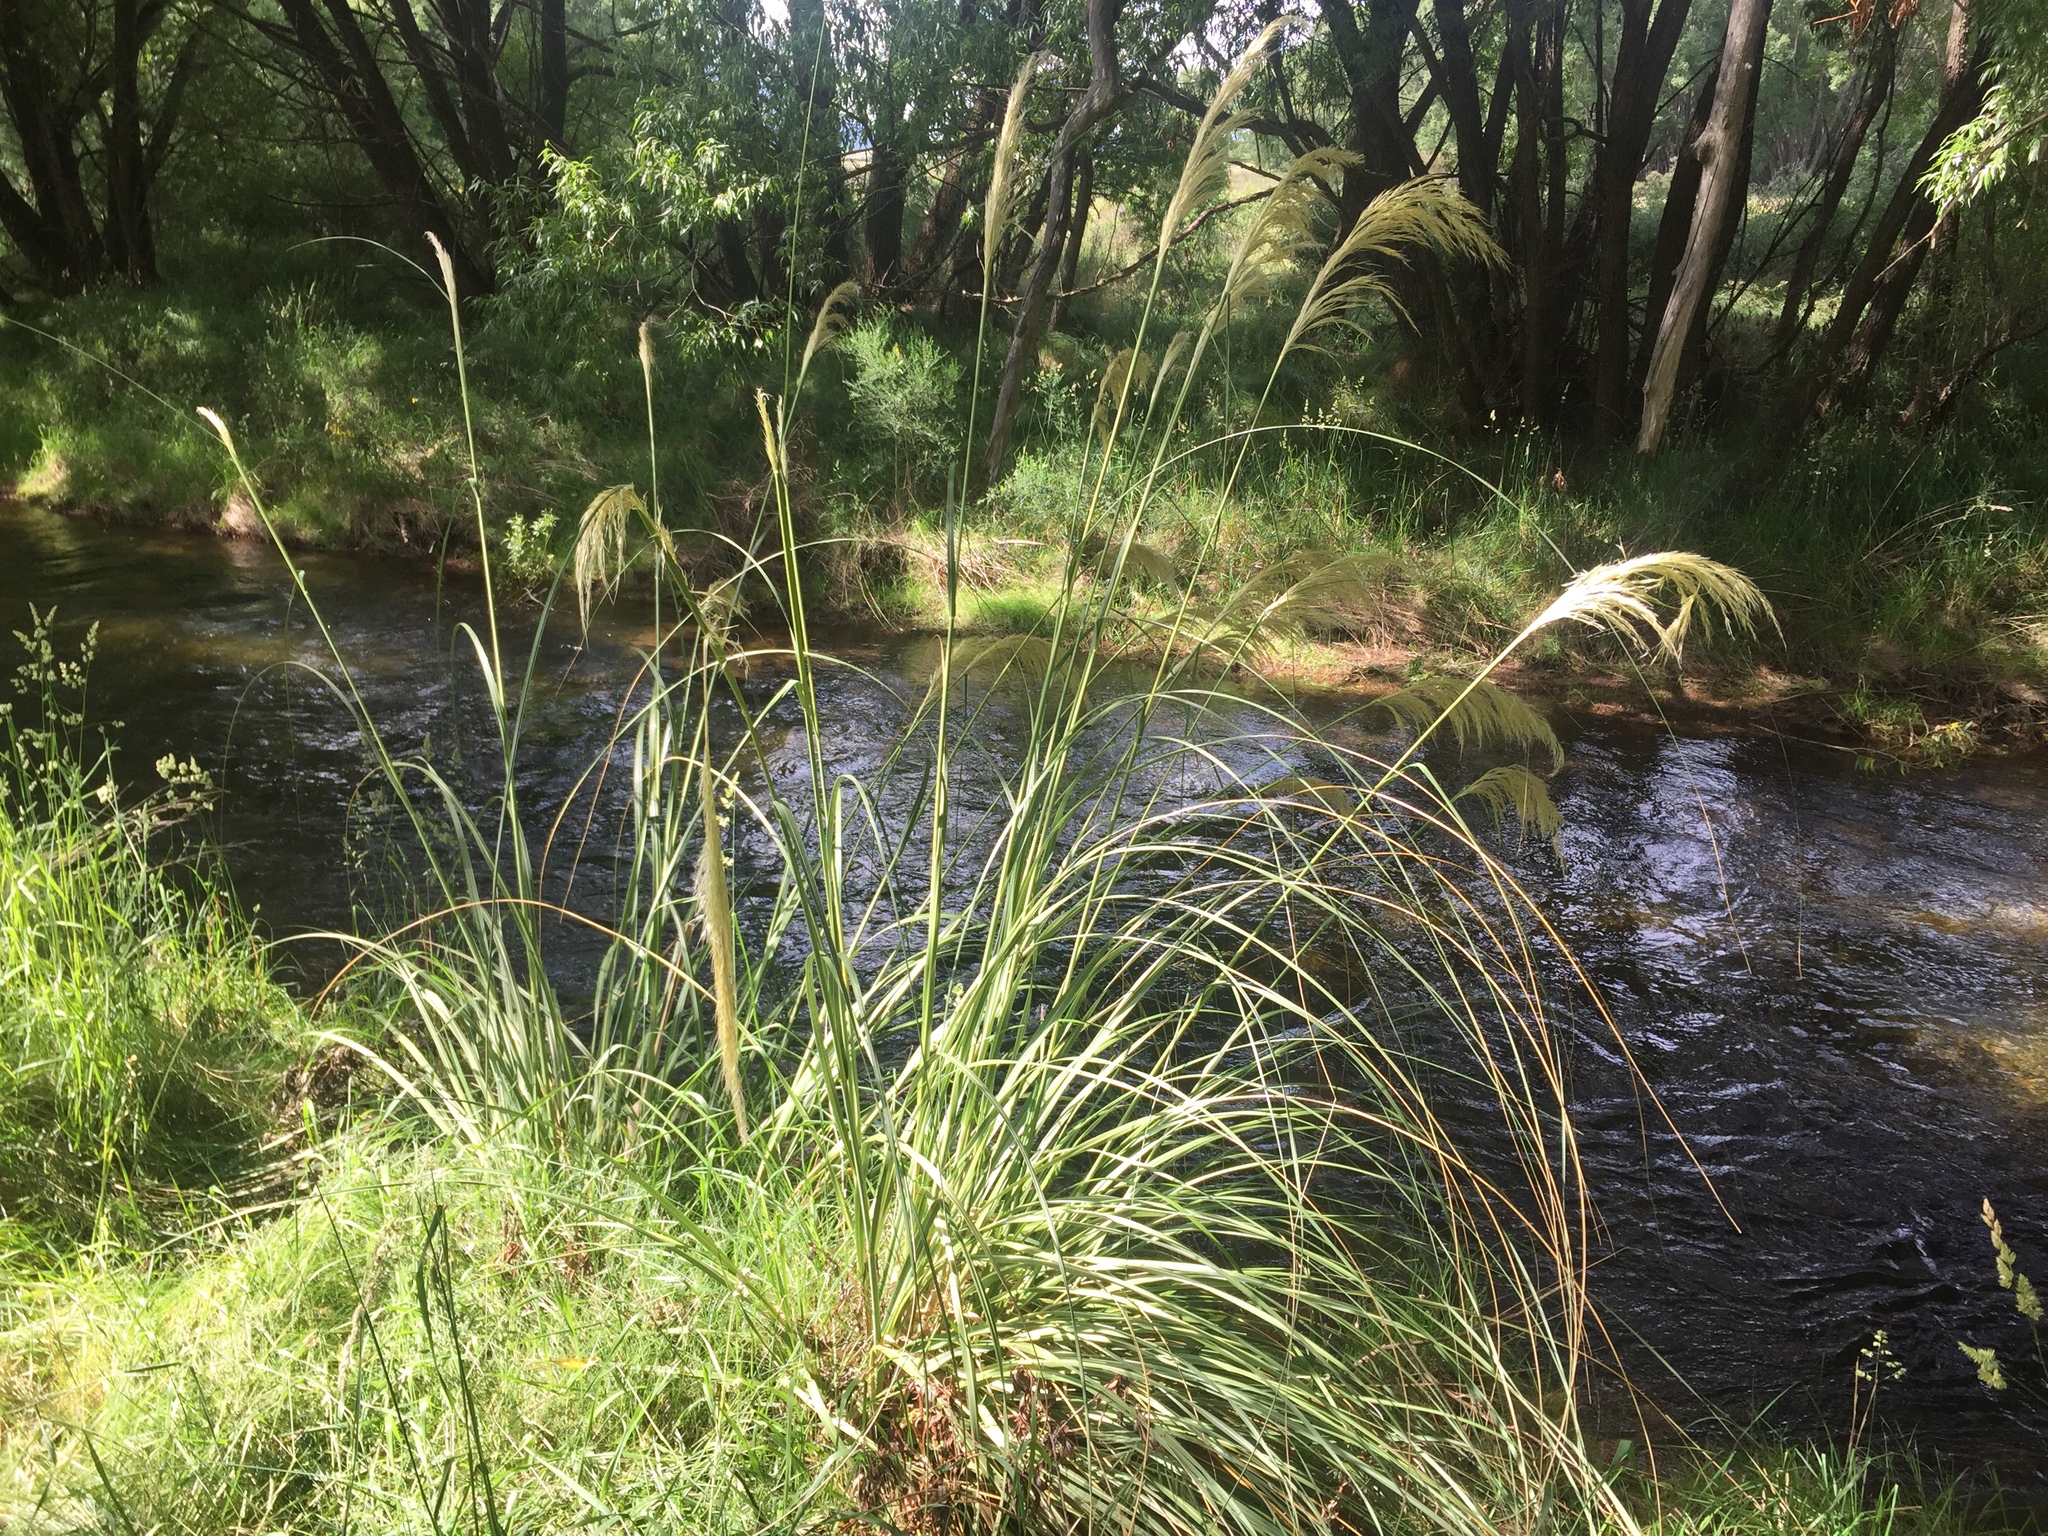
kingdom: Plantae
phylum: Tracheophyta
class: Liliopsida
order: Poales
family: Poaceae
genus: Austroderia
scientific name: Austroderia richardii
